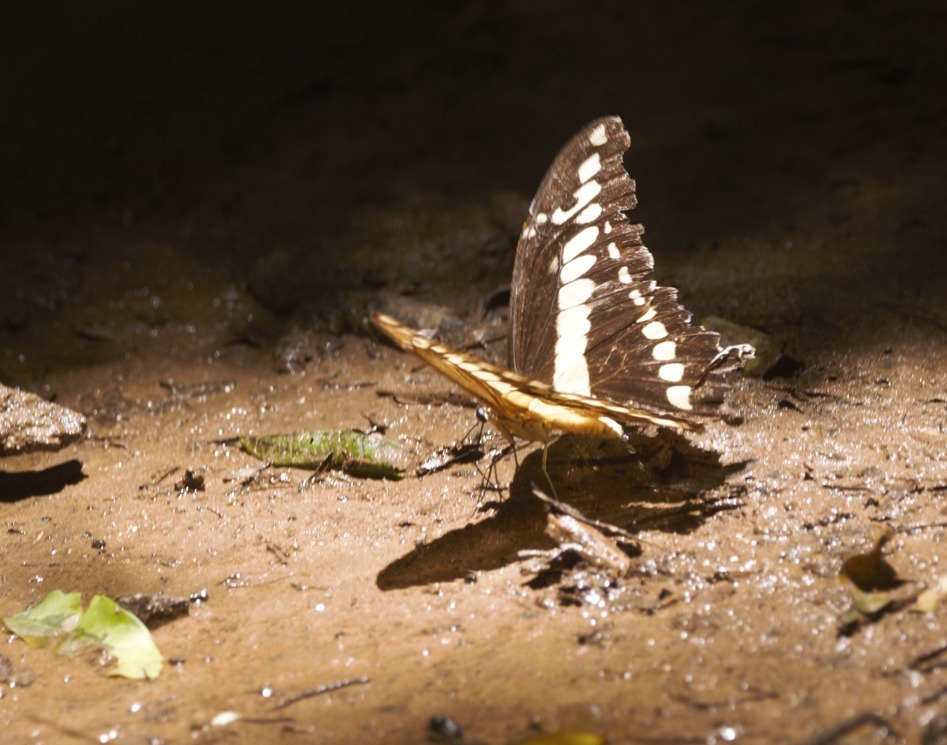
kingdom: Animalia
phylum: Arthropoda
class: Insecta
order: Lepidoptera
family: Papilionidae
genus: Papilio
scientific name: Papilio thoas
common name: King swallowtail
